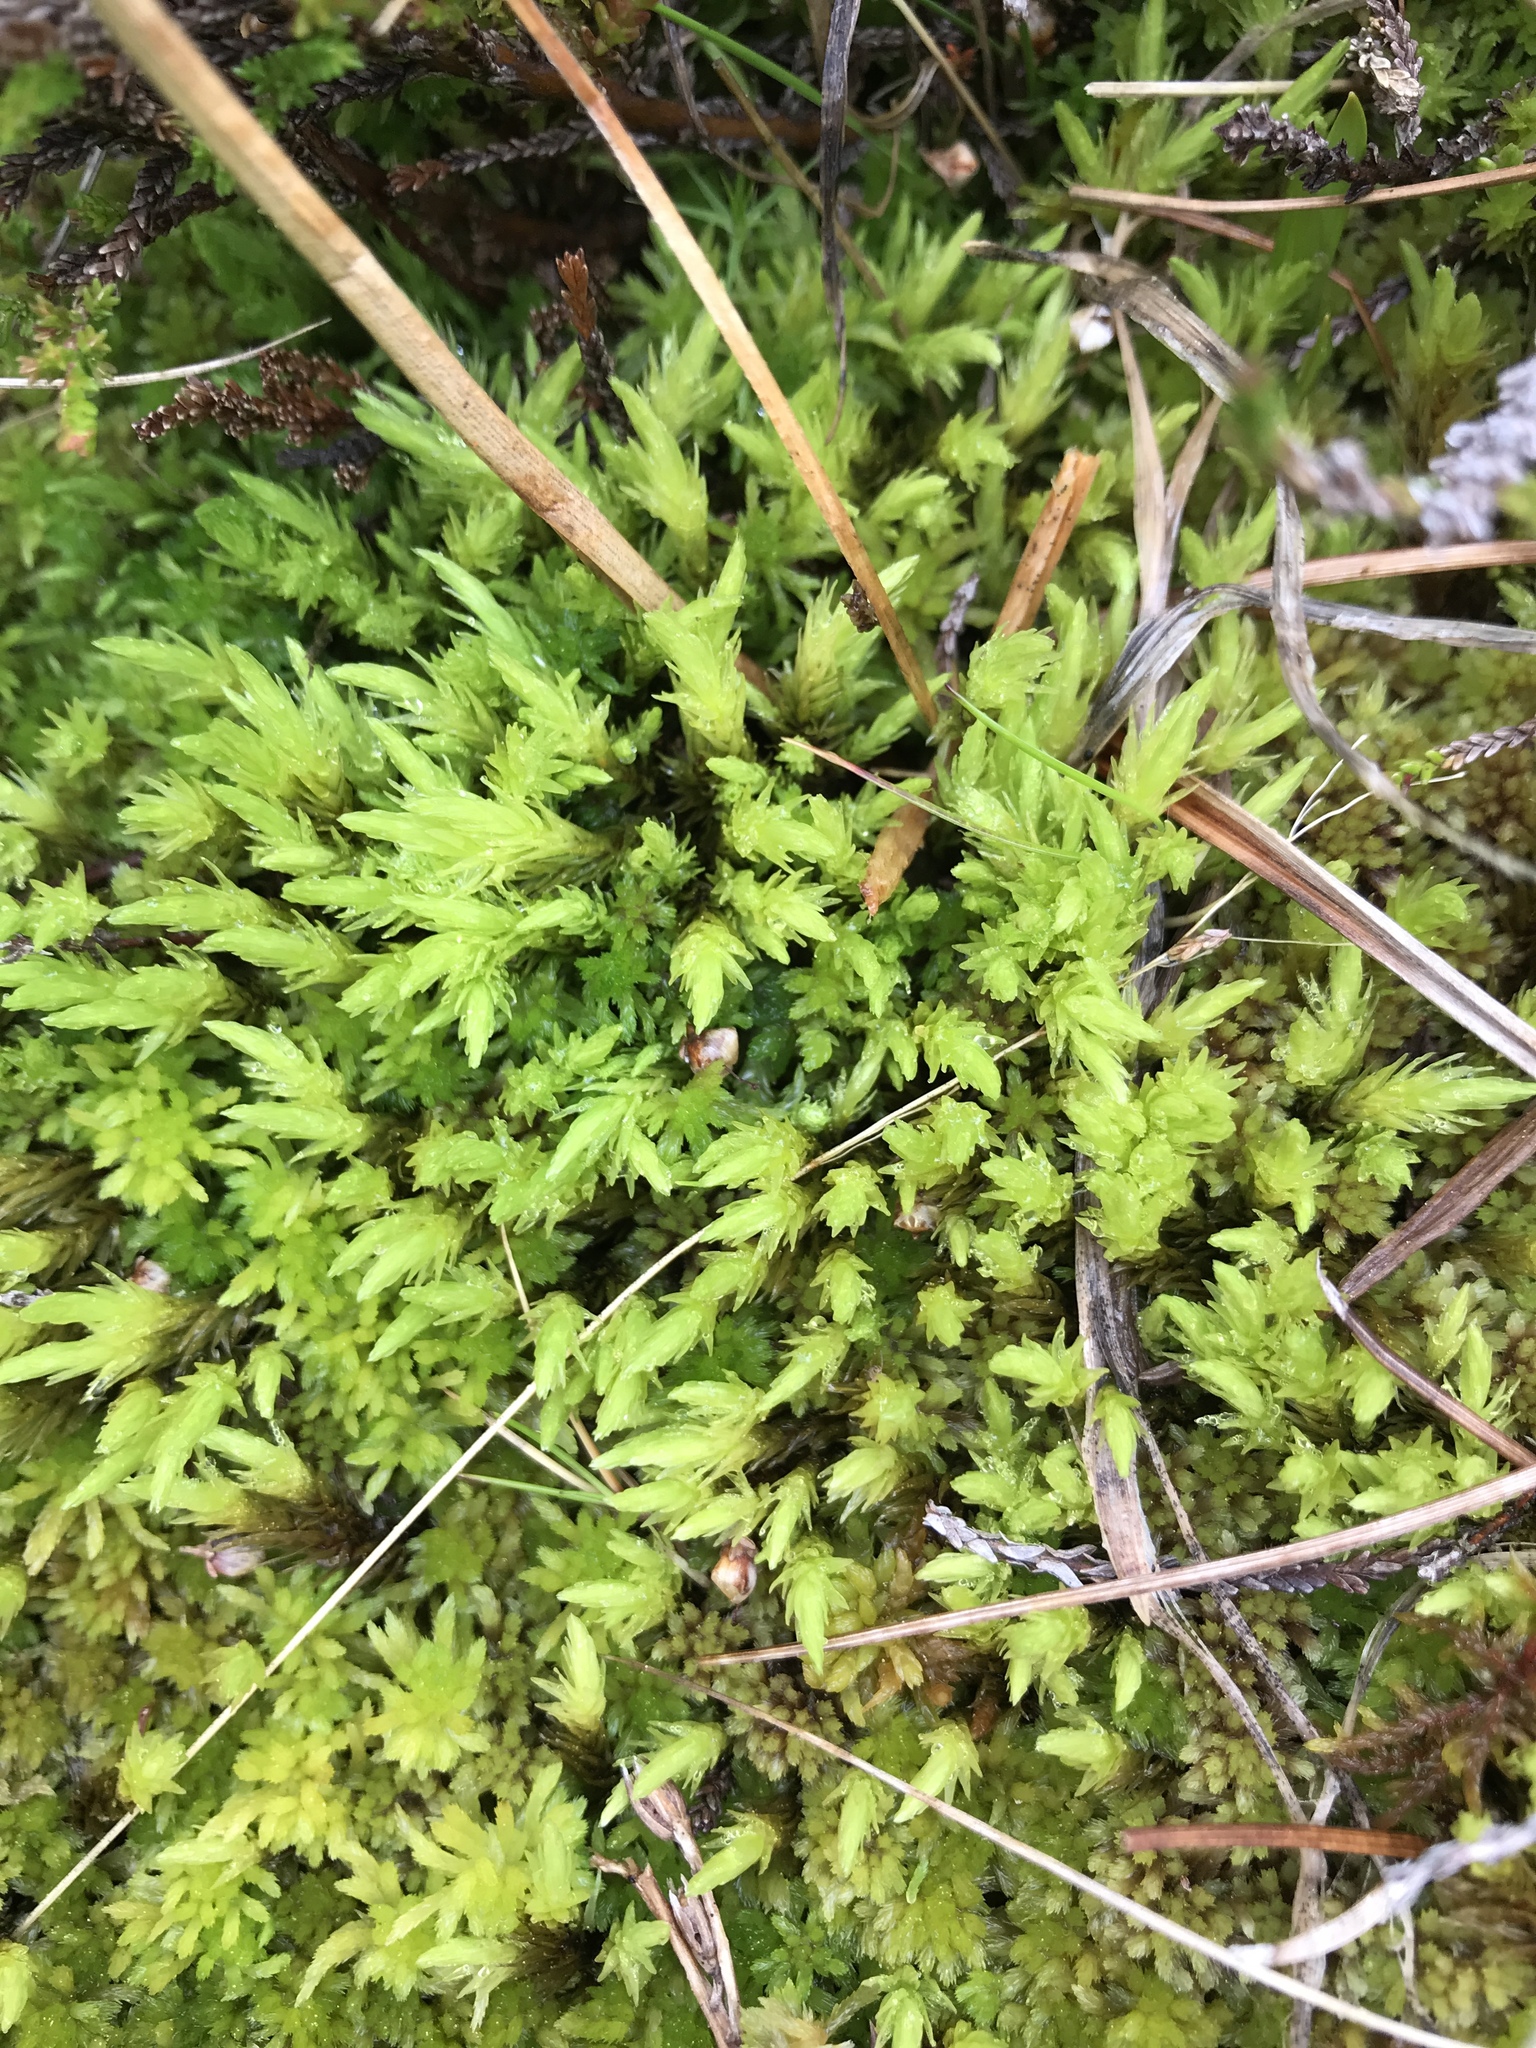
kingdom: Plantae
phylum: Bryophyta
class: Bryopsida
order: Aulacomniales
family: Aulacomniaceae
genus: Aulacomnium
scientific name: Aulacomnium palustre
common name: Bog groove-moss
